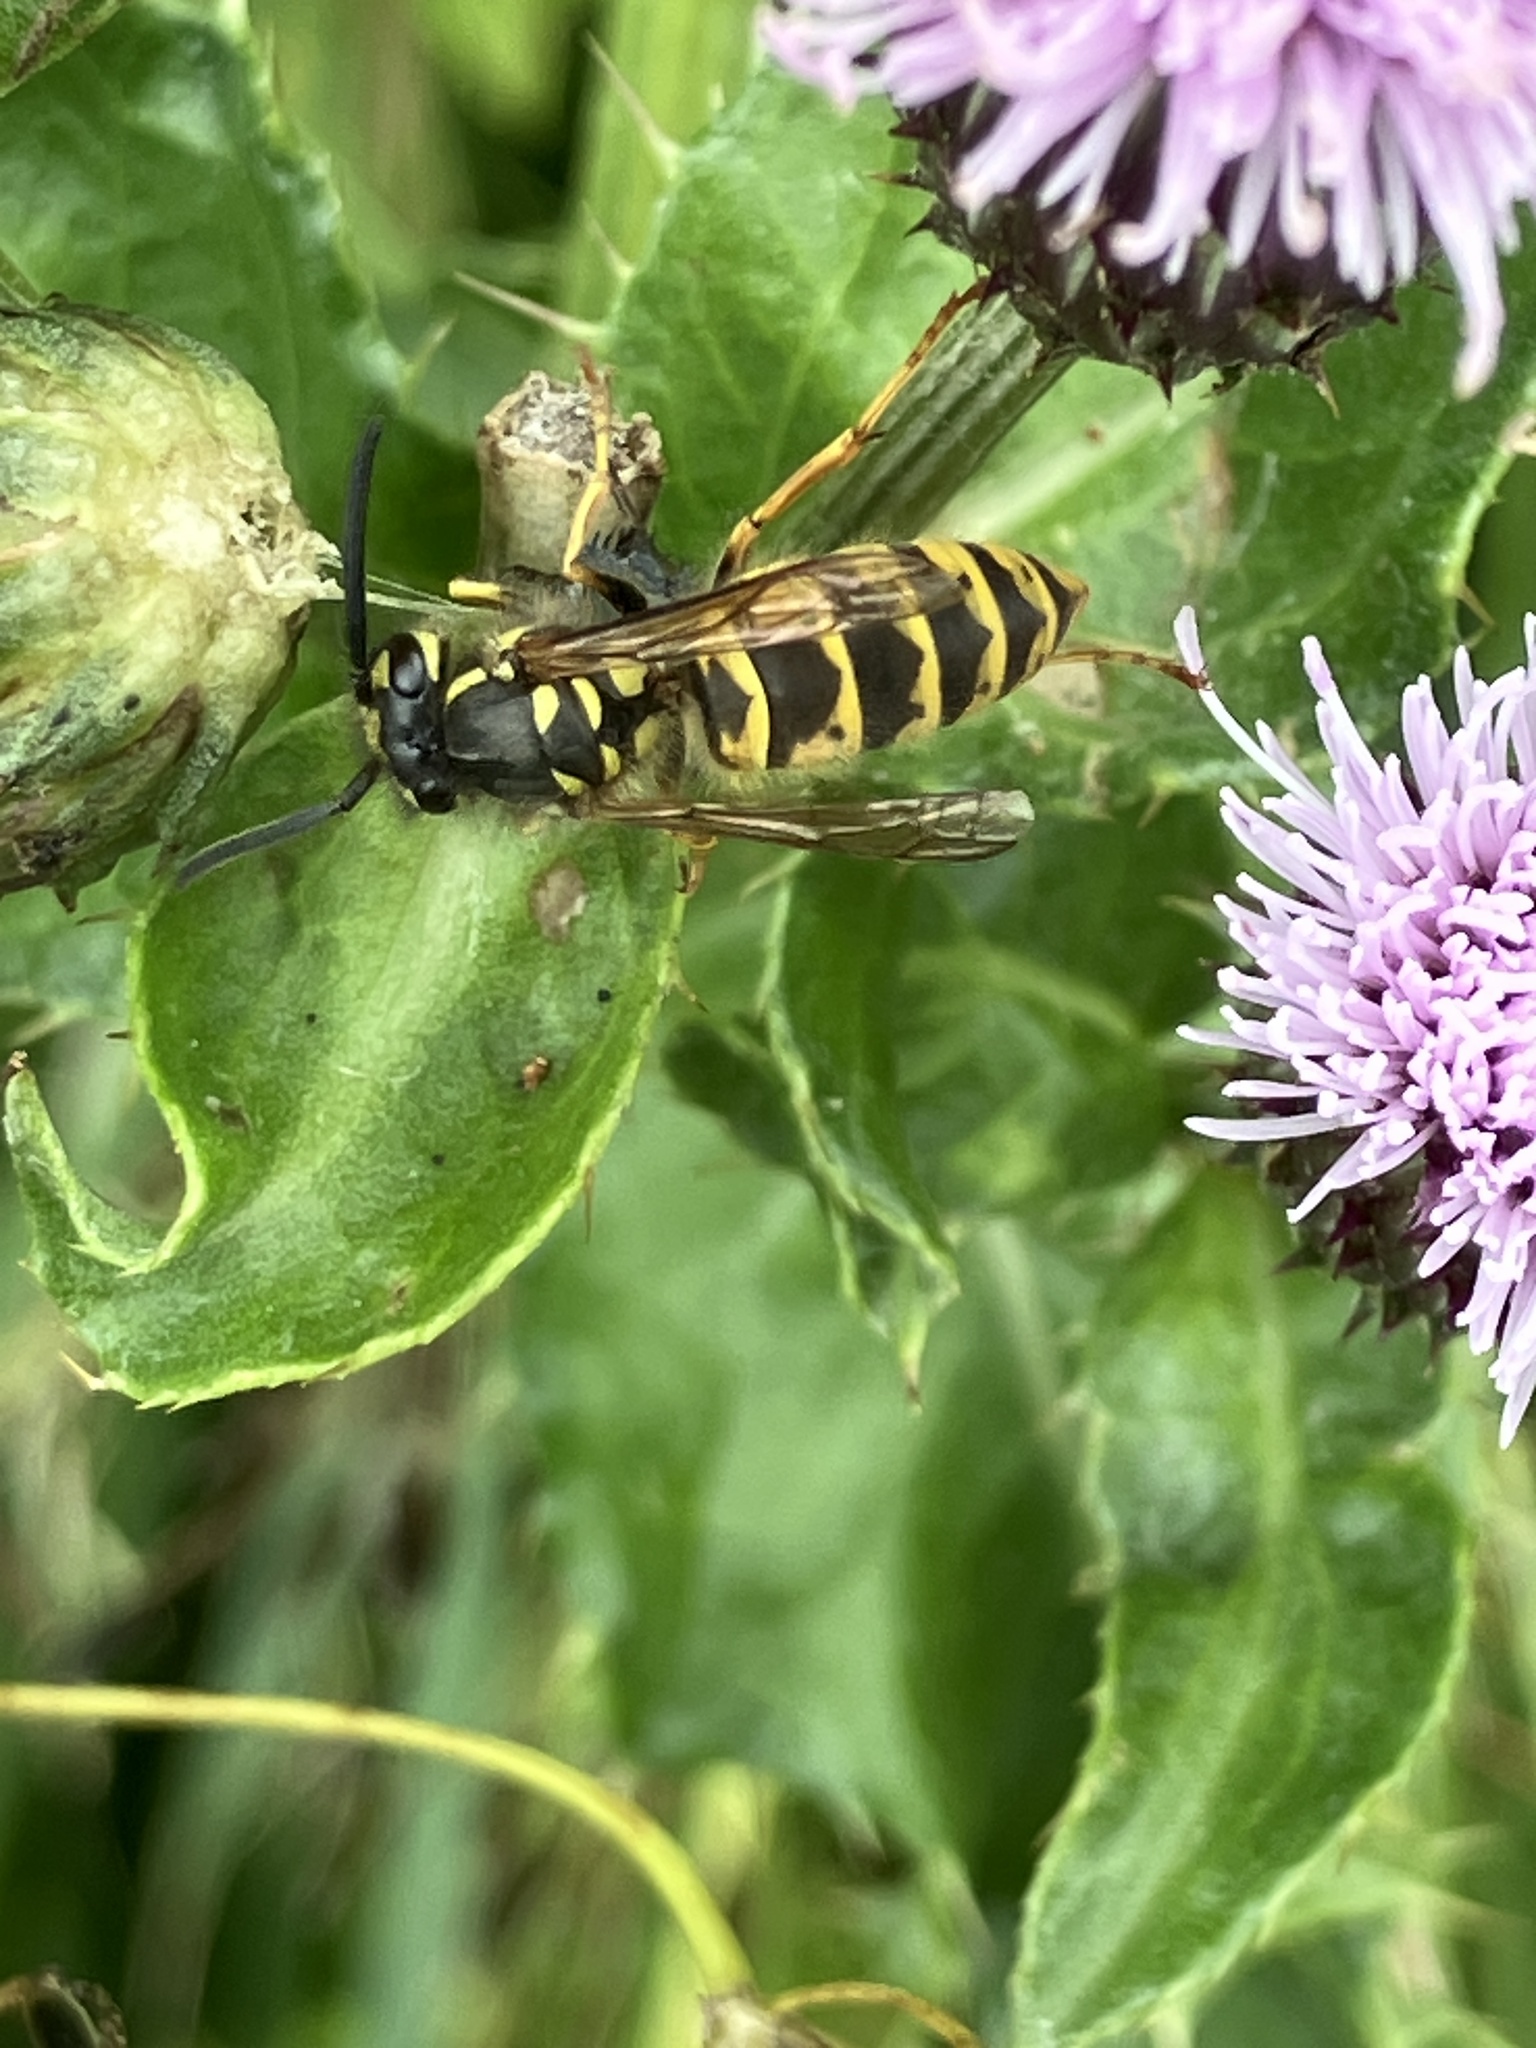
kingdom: Animalia
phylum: Arthropoda
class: Insecta
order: Hymenoptera
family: Vespidae
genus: Vespula
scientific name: Vespula vulgaris
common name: Common wasp
